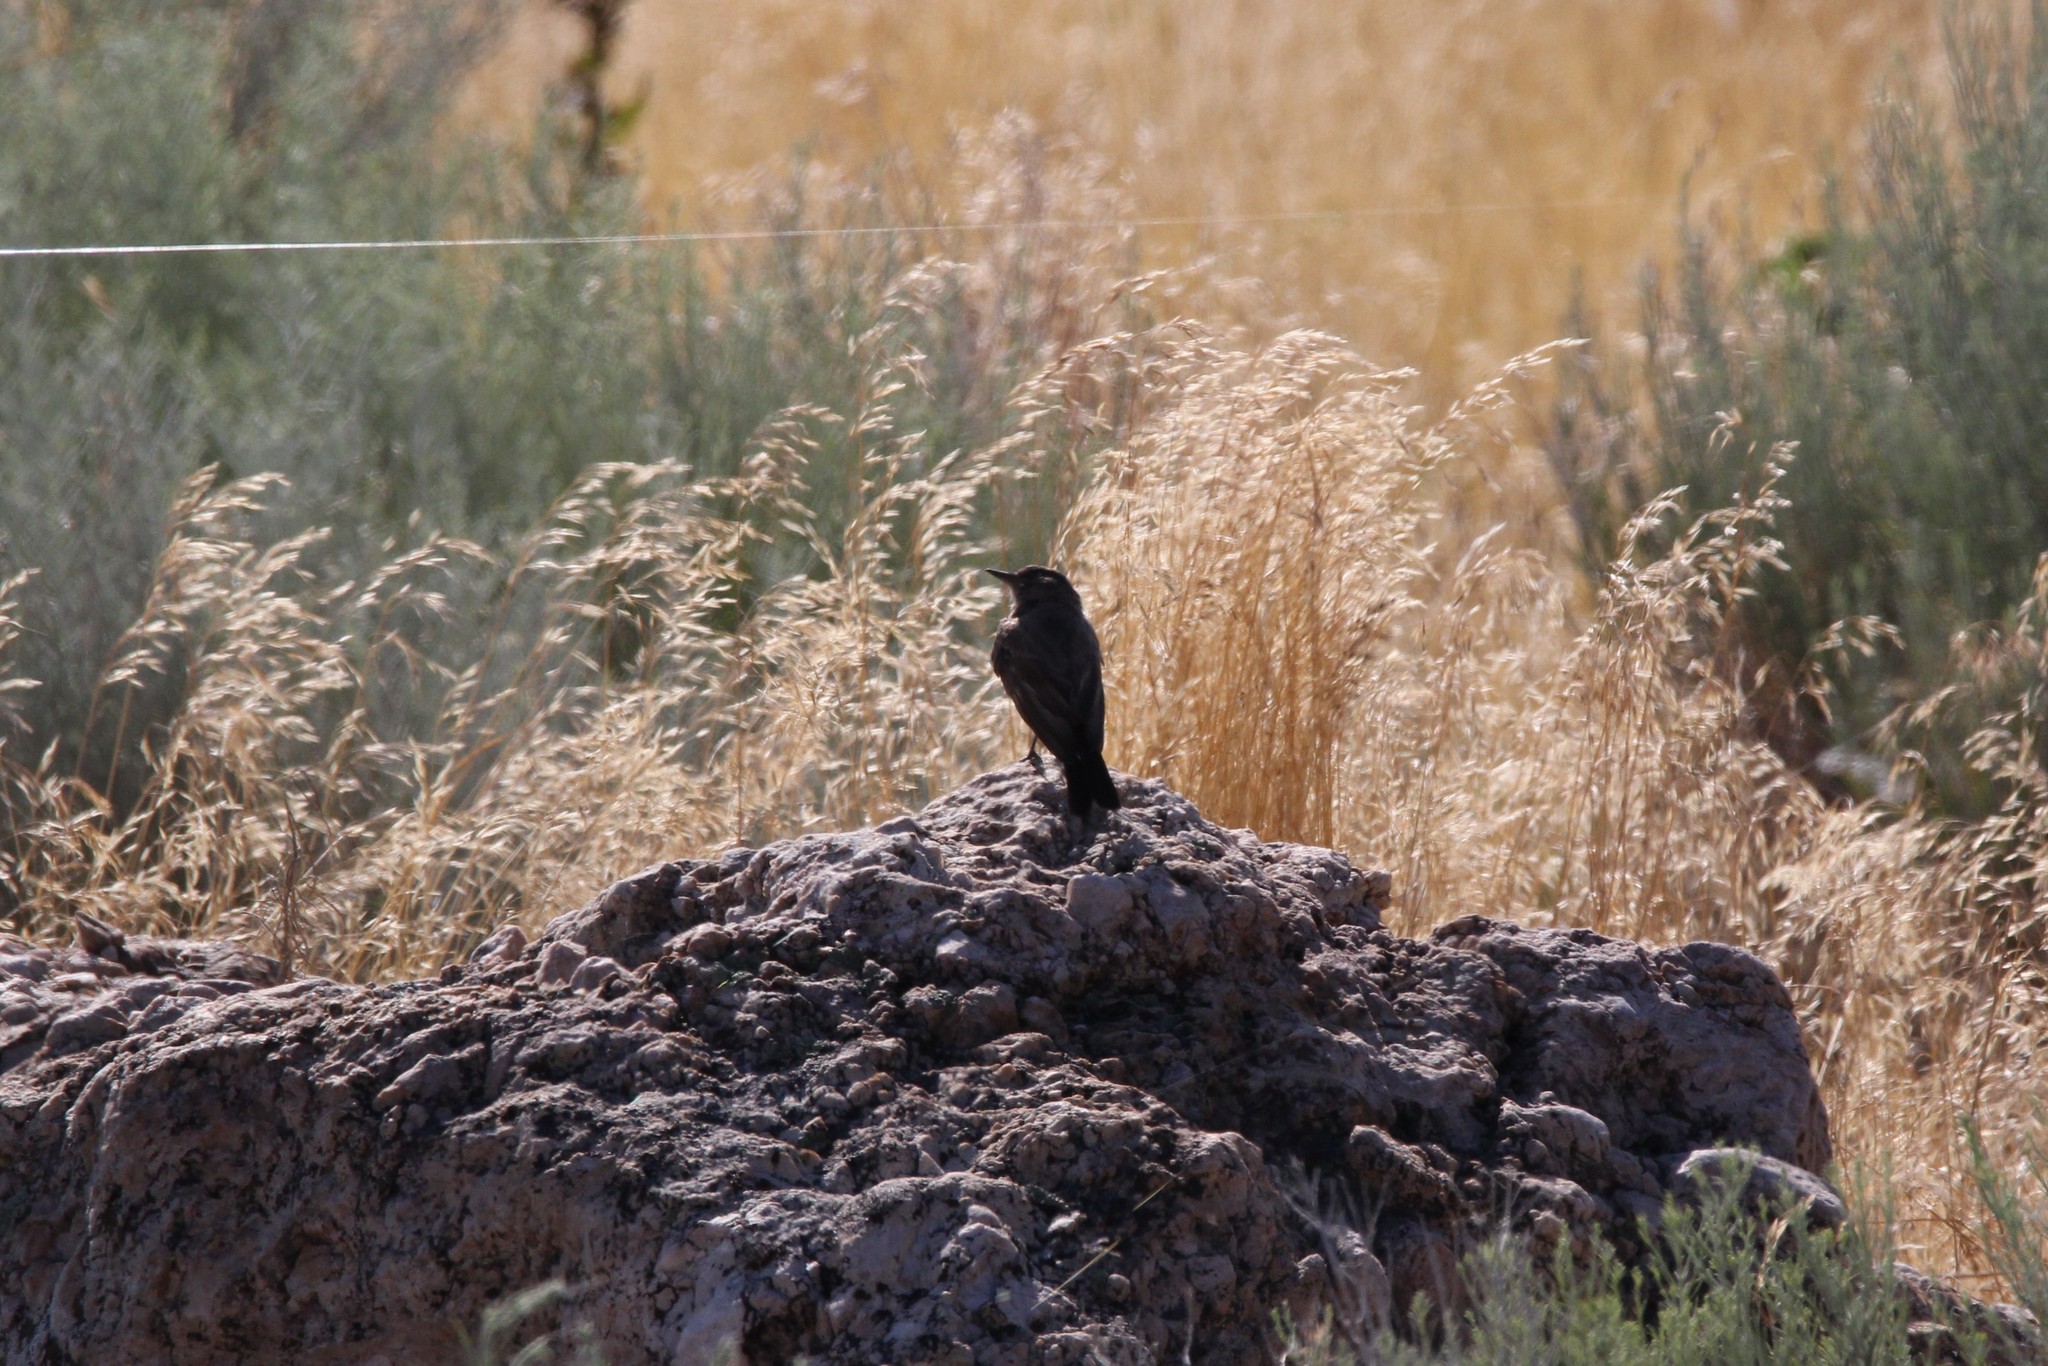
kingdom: Animalia
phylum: Chordata
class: Aves
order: Passeriformes
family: Tyrannidae
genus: Sayornis
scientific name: Sayornis saya
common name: Say's phoebe
